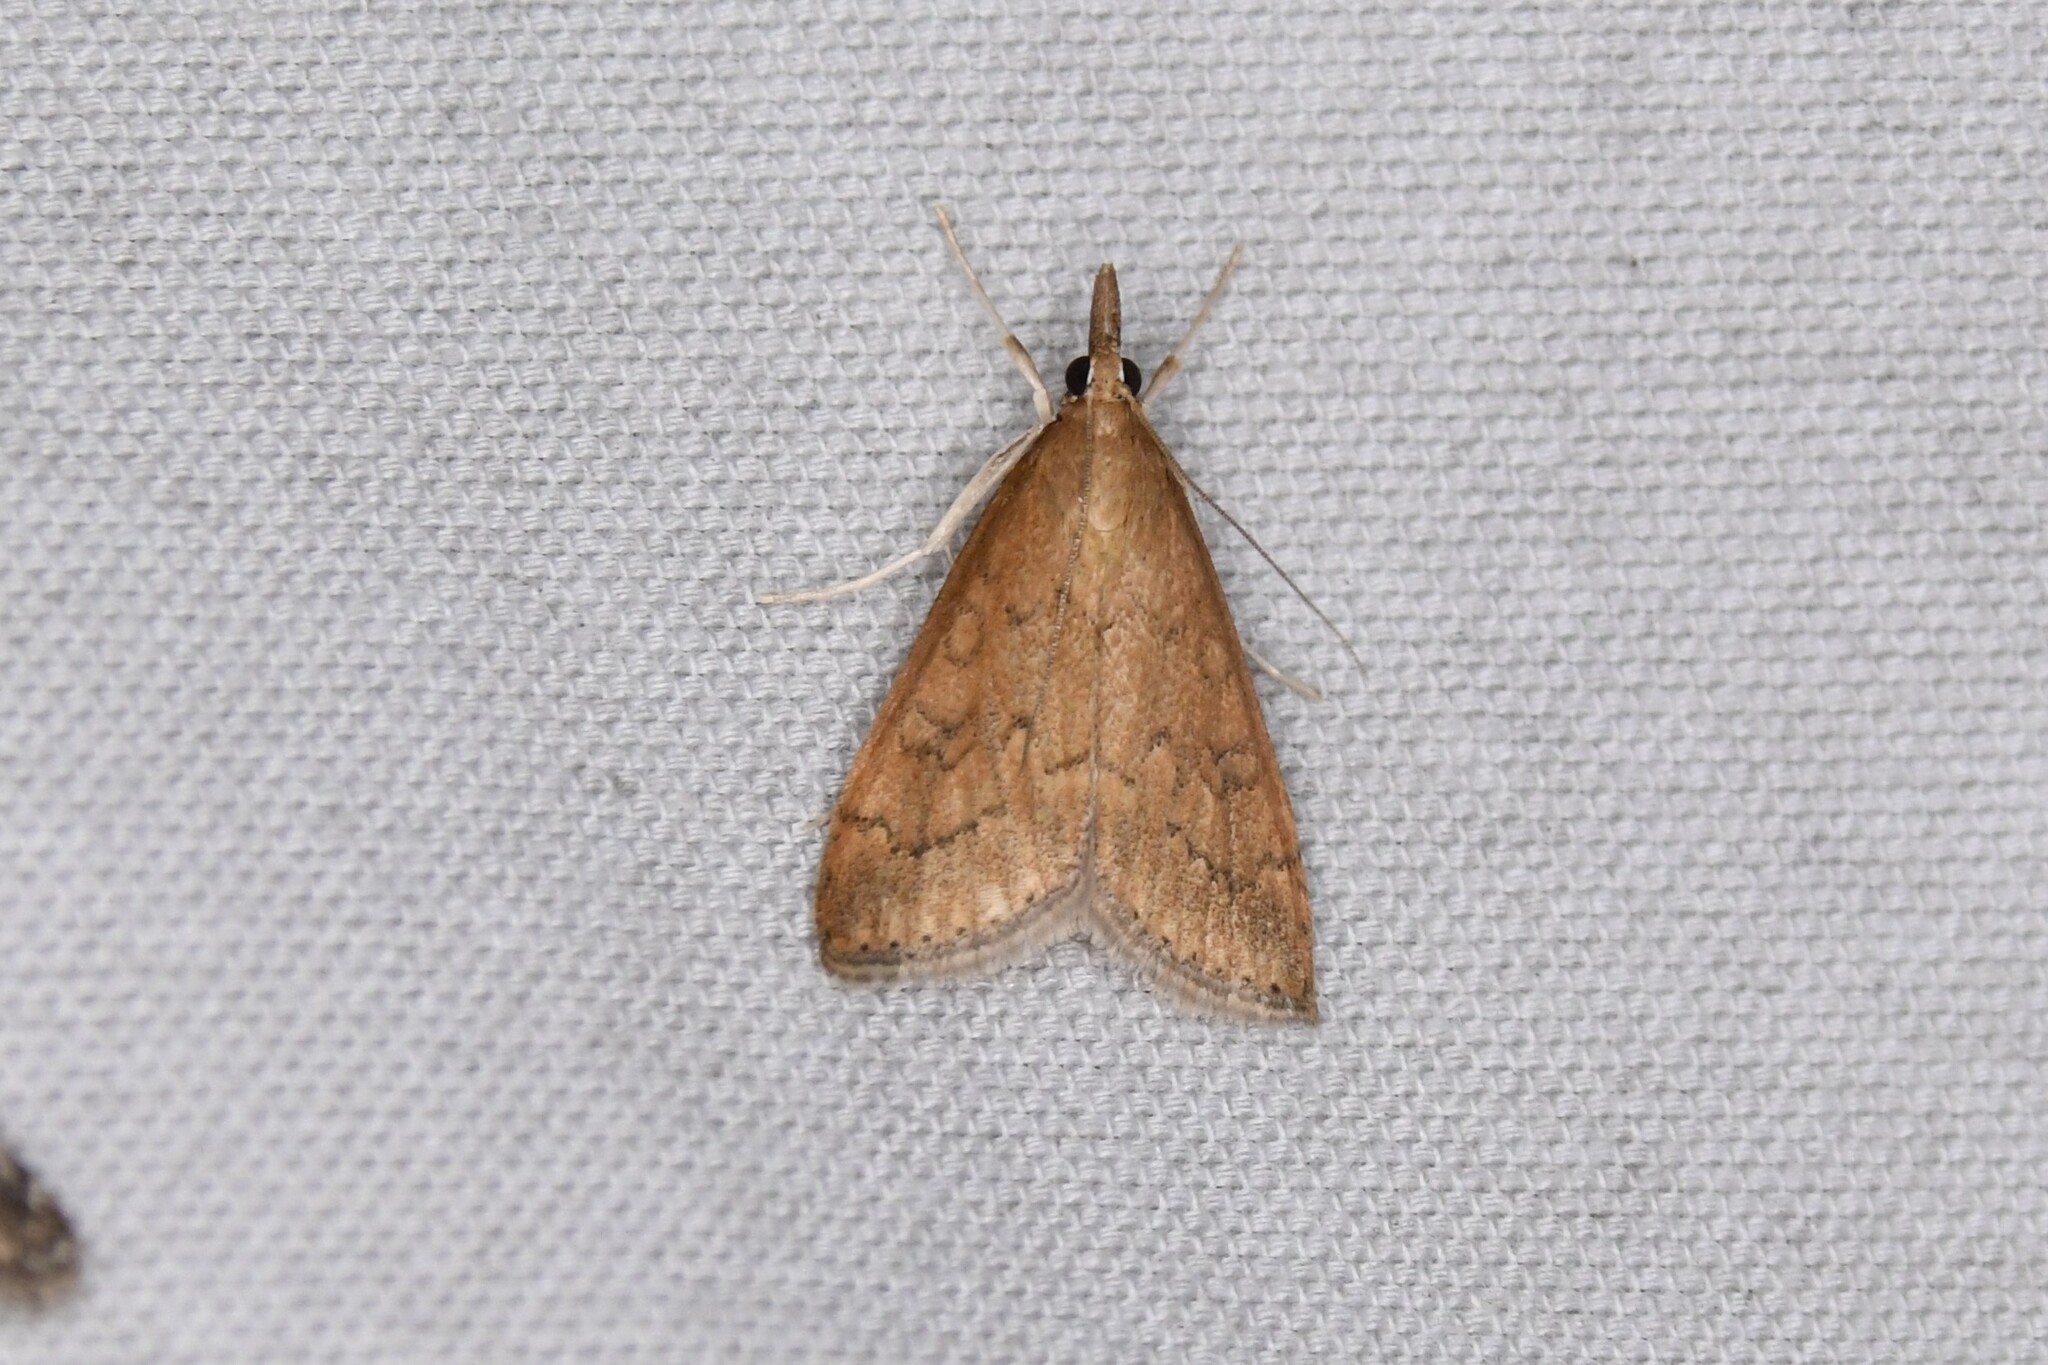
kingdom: Animalia
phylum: Arthropoda
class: Insecta
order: Lepidoptera
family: Crambidae
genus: Udea
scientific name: Udea rubigalis
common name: Celery leaftier moth
